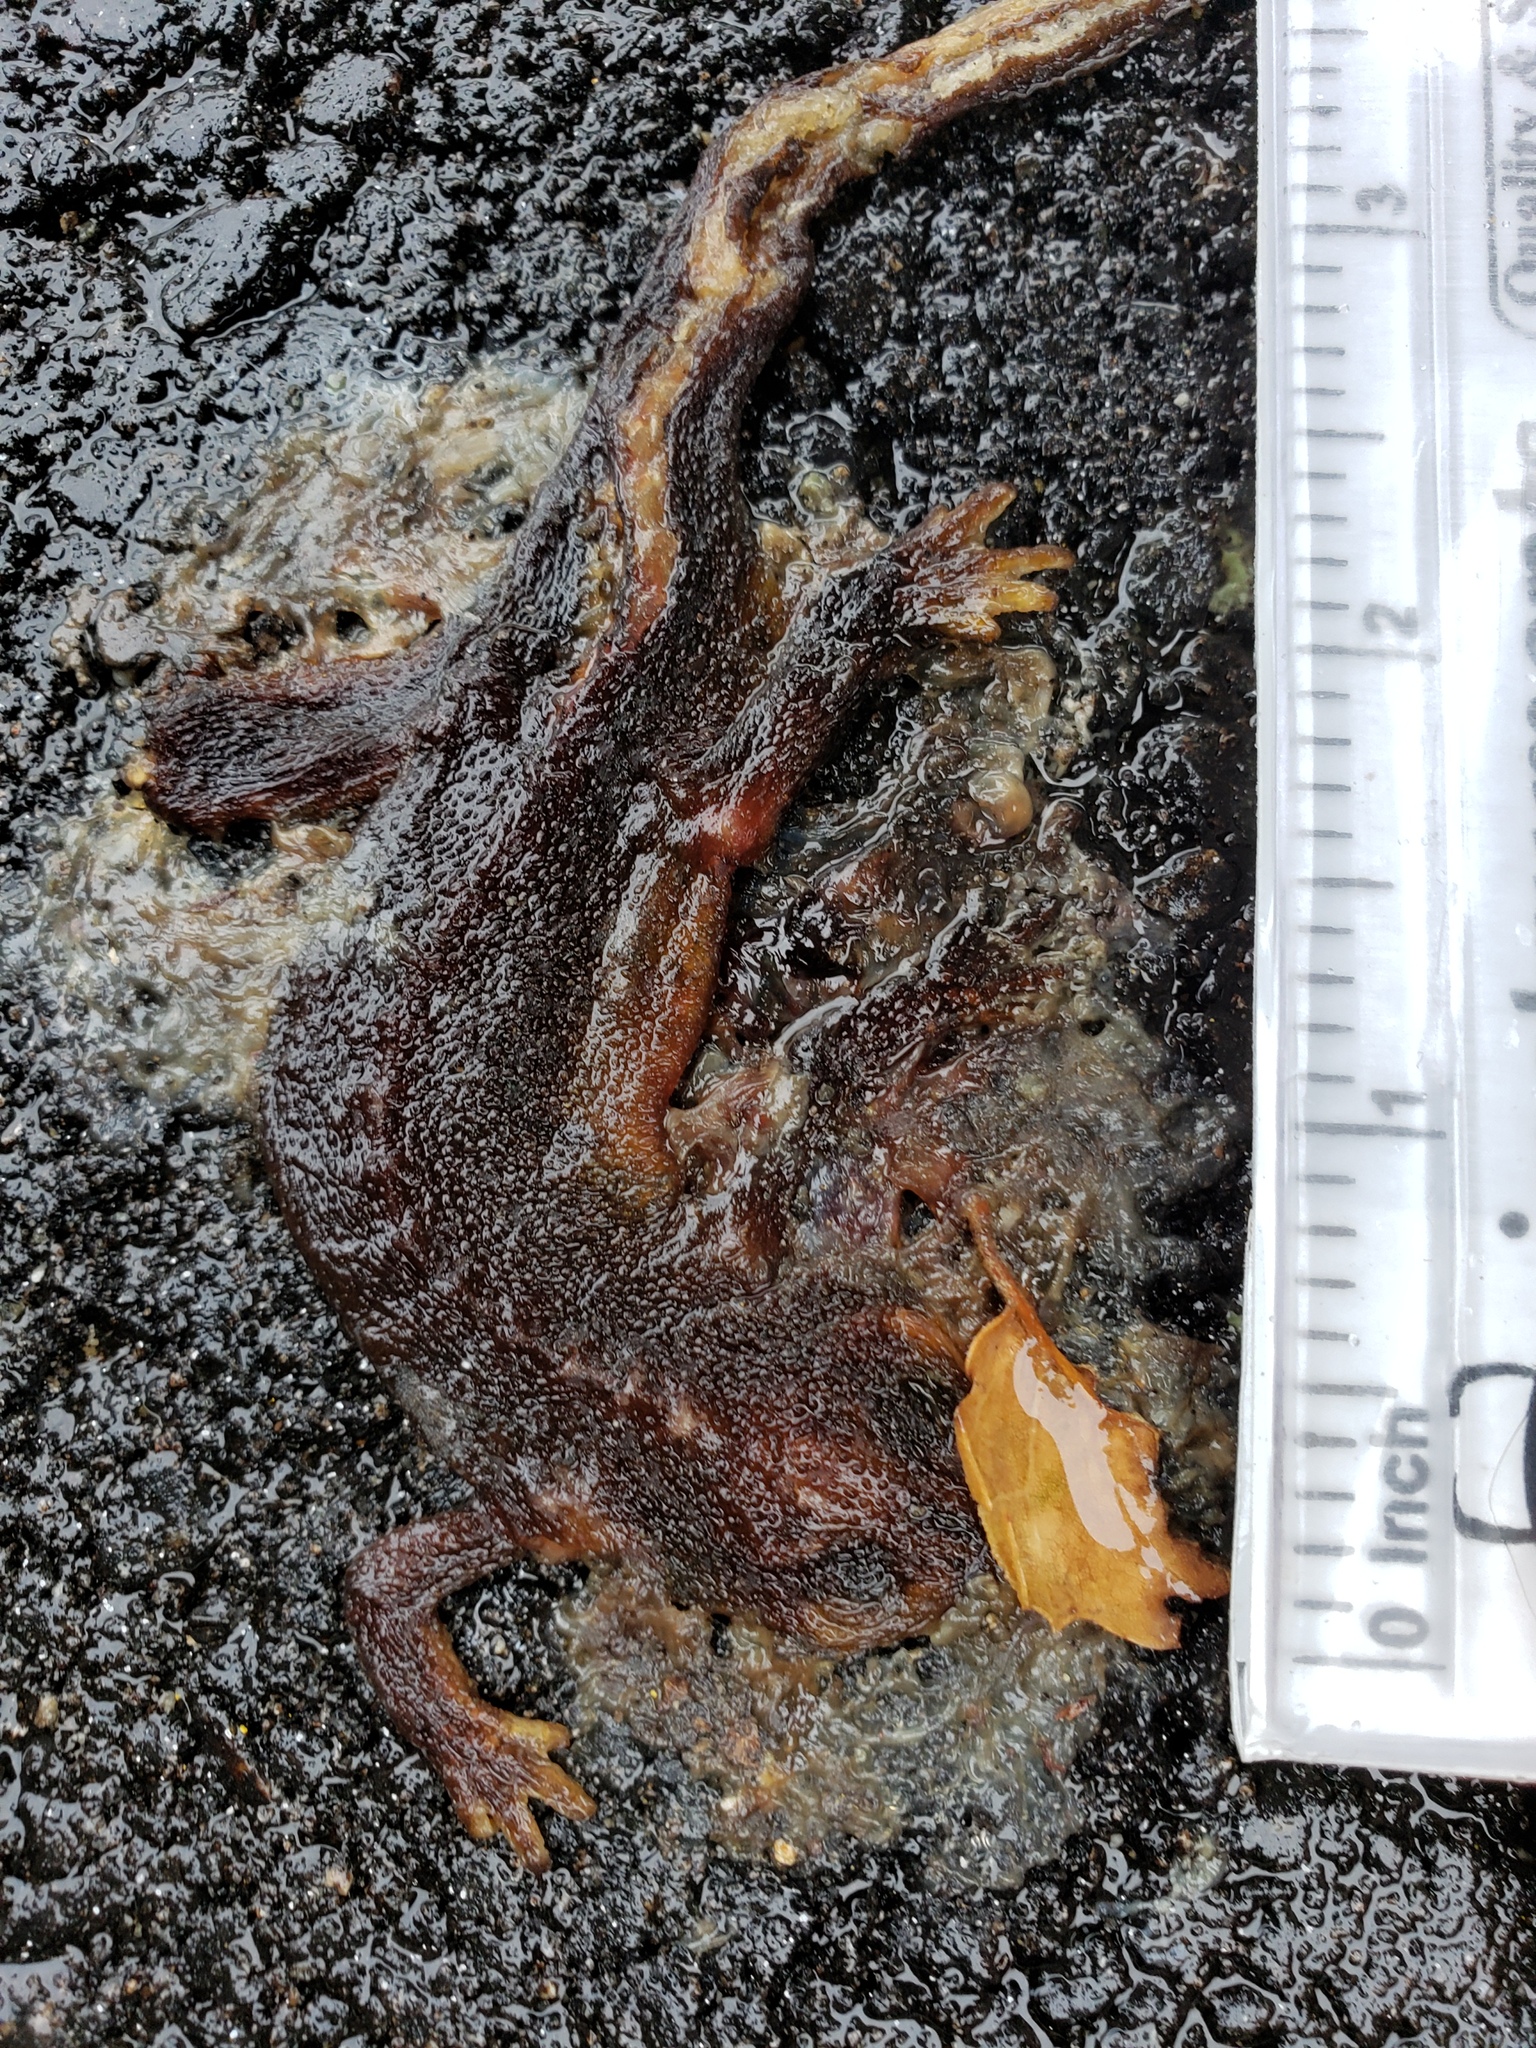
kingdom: Animalia
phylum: Chordata
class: Amphibia
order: Caudata
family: Salamandridae
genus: Taricha
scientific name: Taricha
